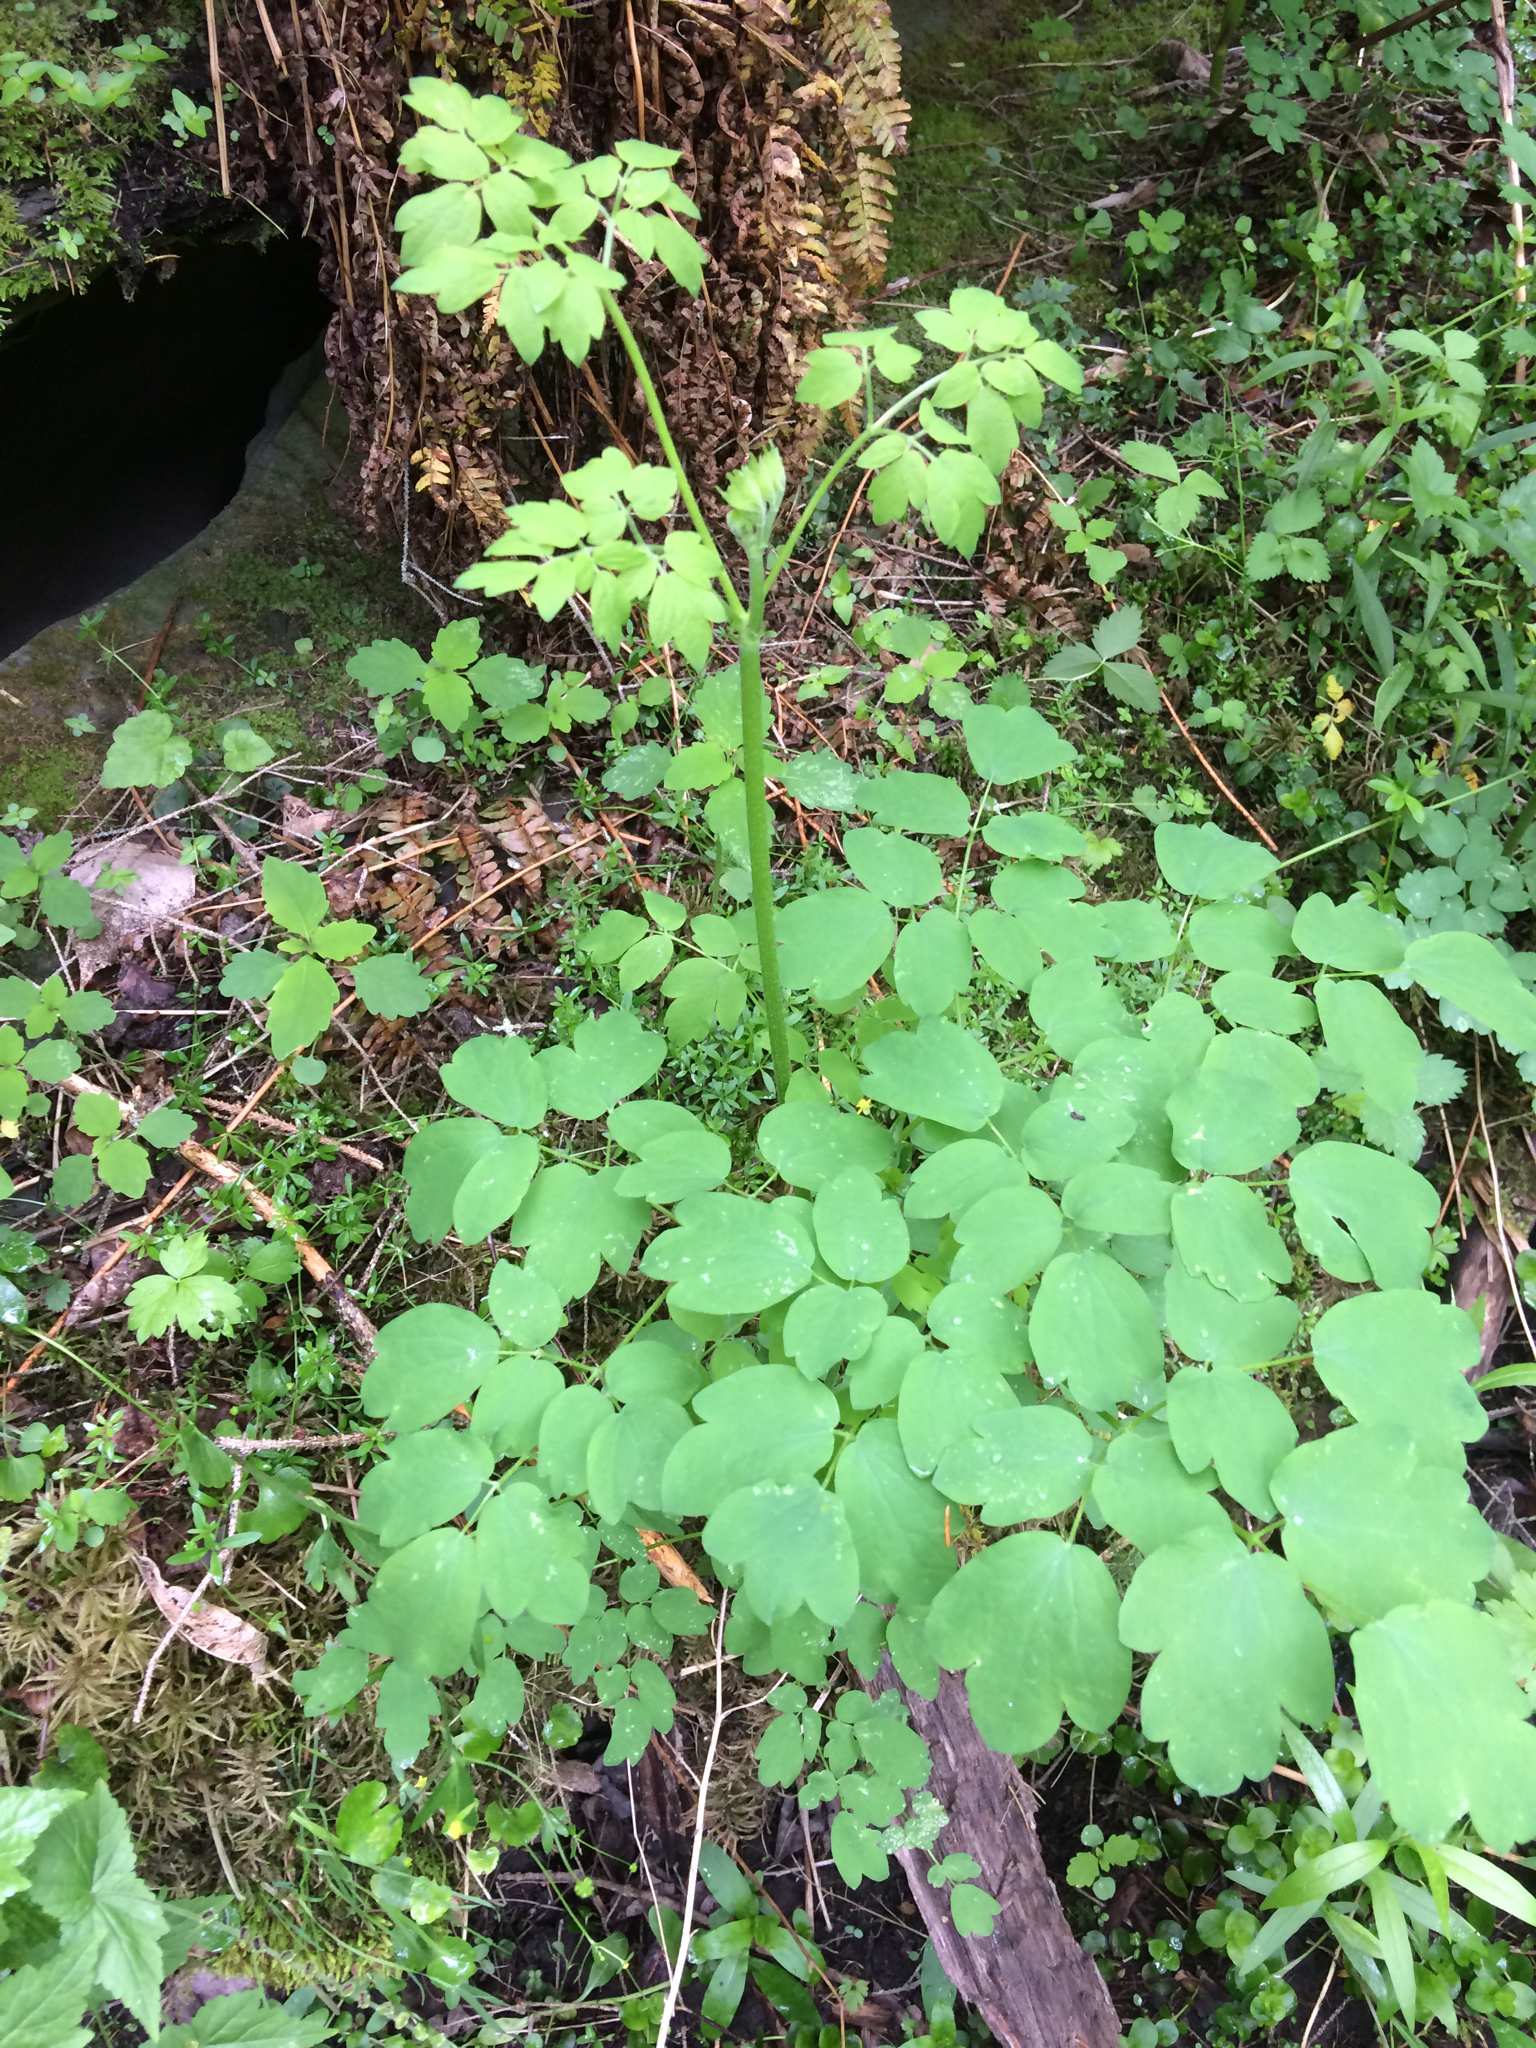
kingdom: Plantae
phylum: Tracheophyta
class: Magnoliopsida
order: Ranunculales
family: Ranunculaceae
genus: Thalictrum
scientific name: Thalictrum pubescens
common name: King-of-the-meadow
